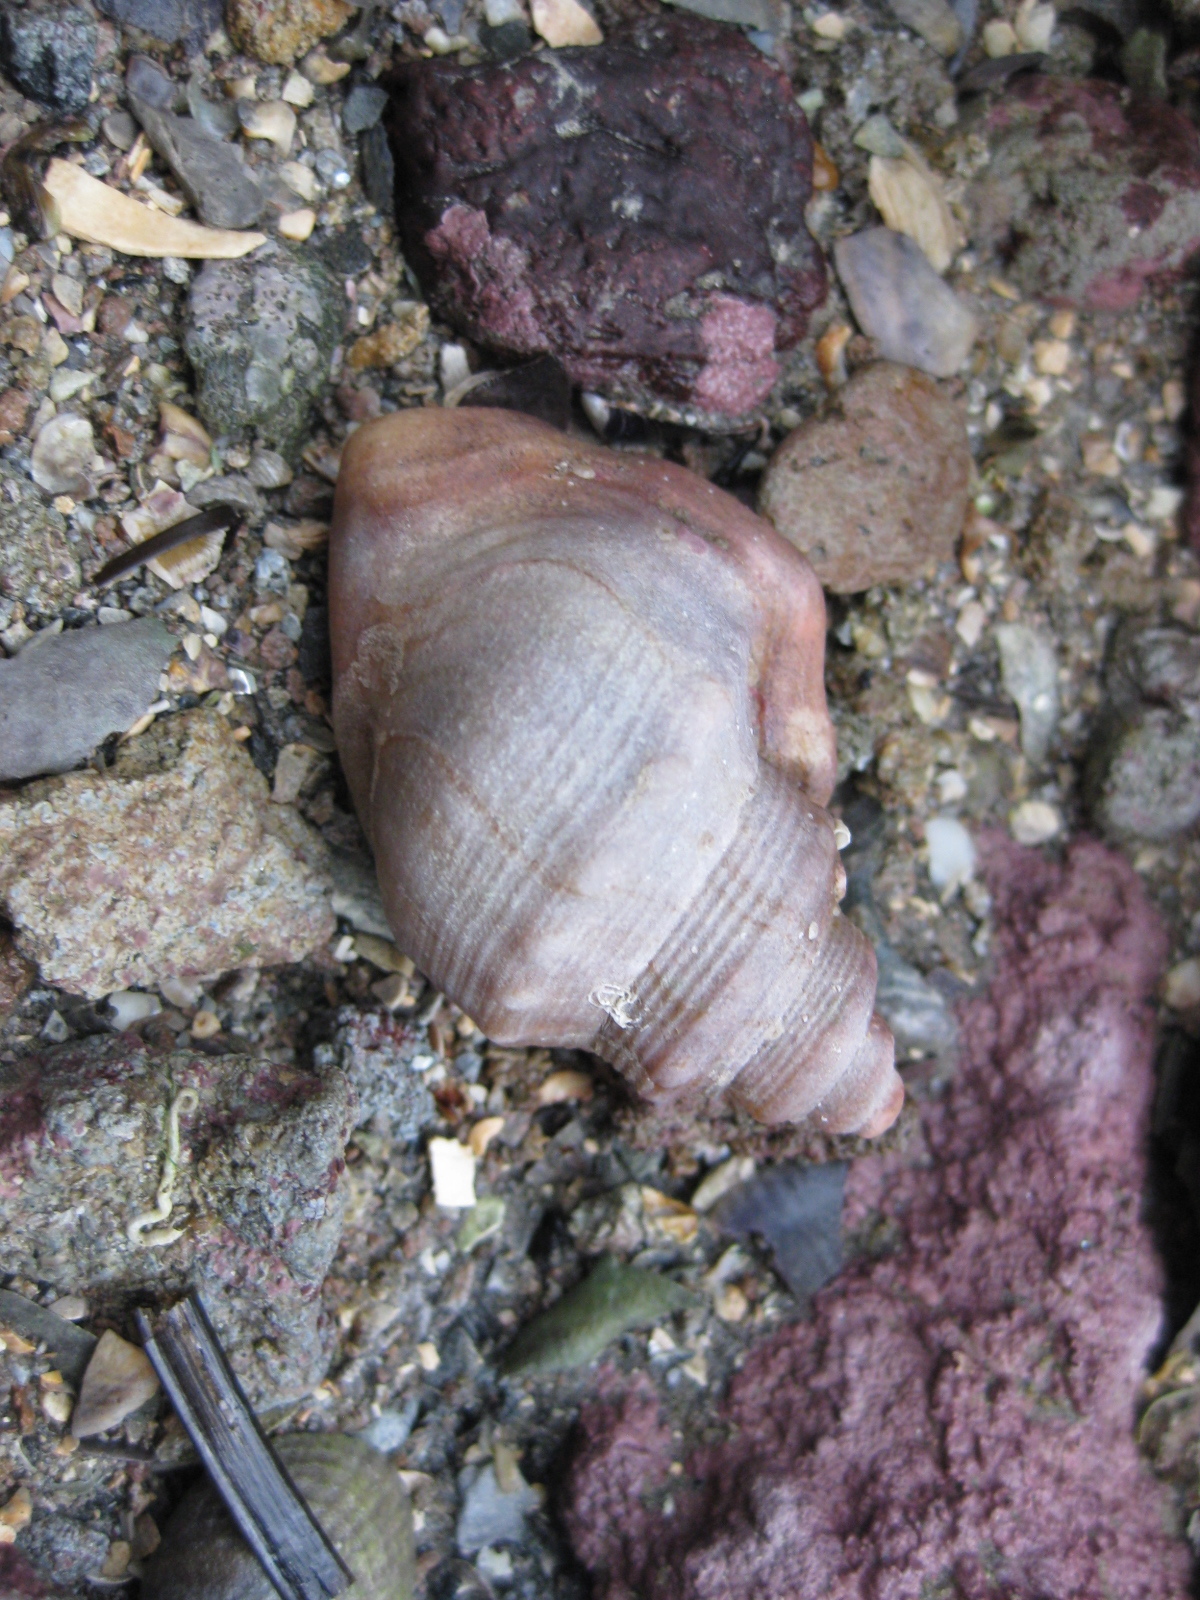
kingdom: Animalia
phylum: Mollusca
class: Gastropoda
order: Littorinimorpha
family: Struthiolariidae
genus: Struthiolaria
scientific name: Struthiolaria papulosa
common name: Large ostrich foot
